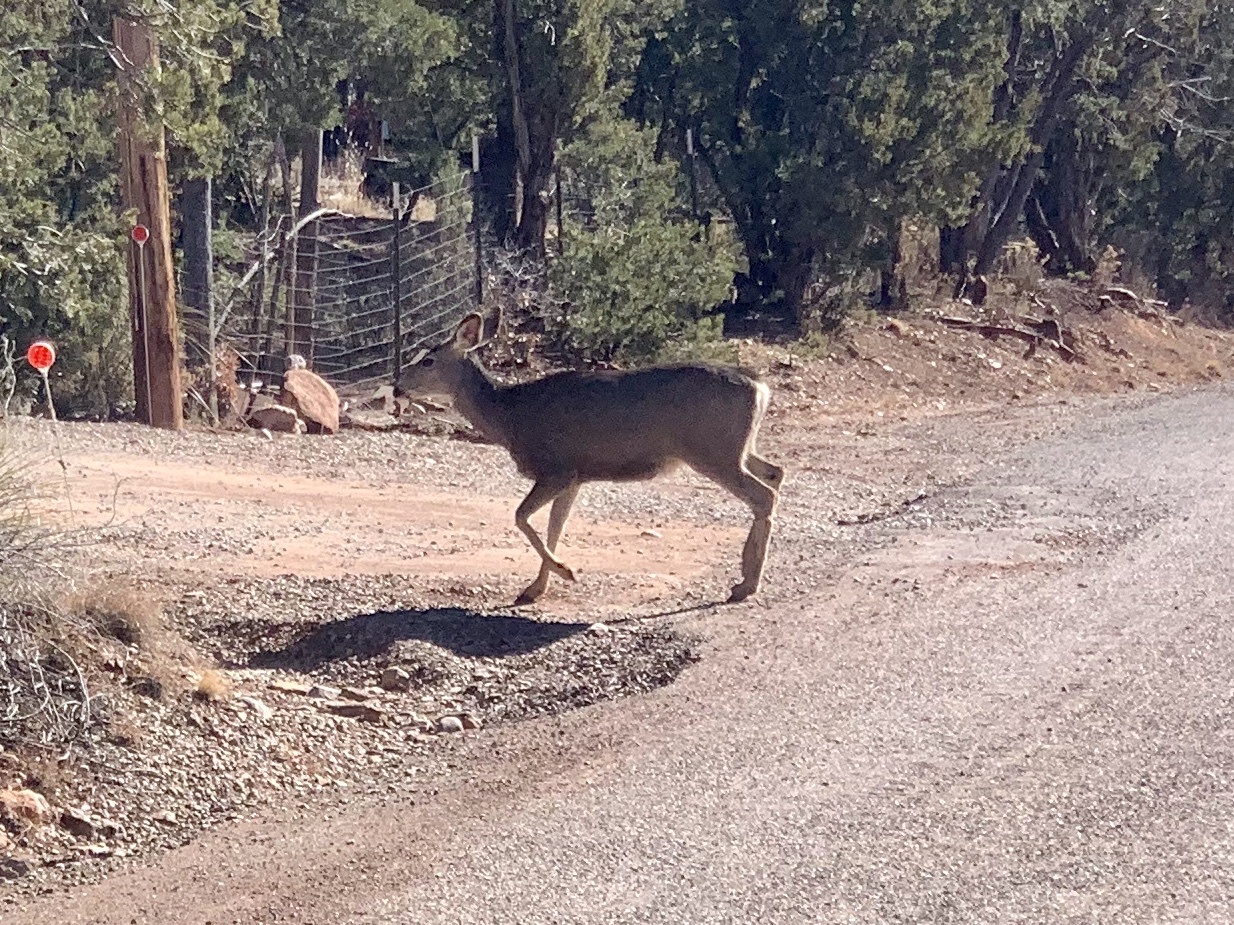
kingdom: Animalia
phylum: Chordata
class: Mammalia
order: Artiodactyla
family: Cervidae
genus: Odocoileus
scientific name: Odocoileus hemionus
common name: Mule deer
